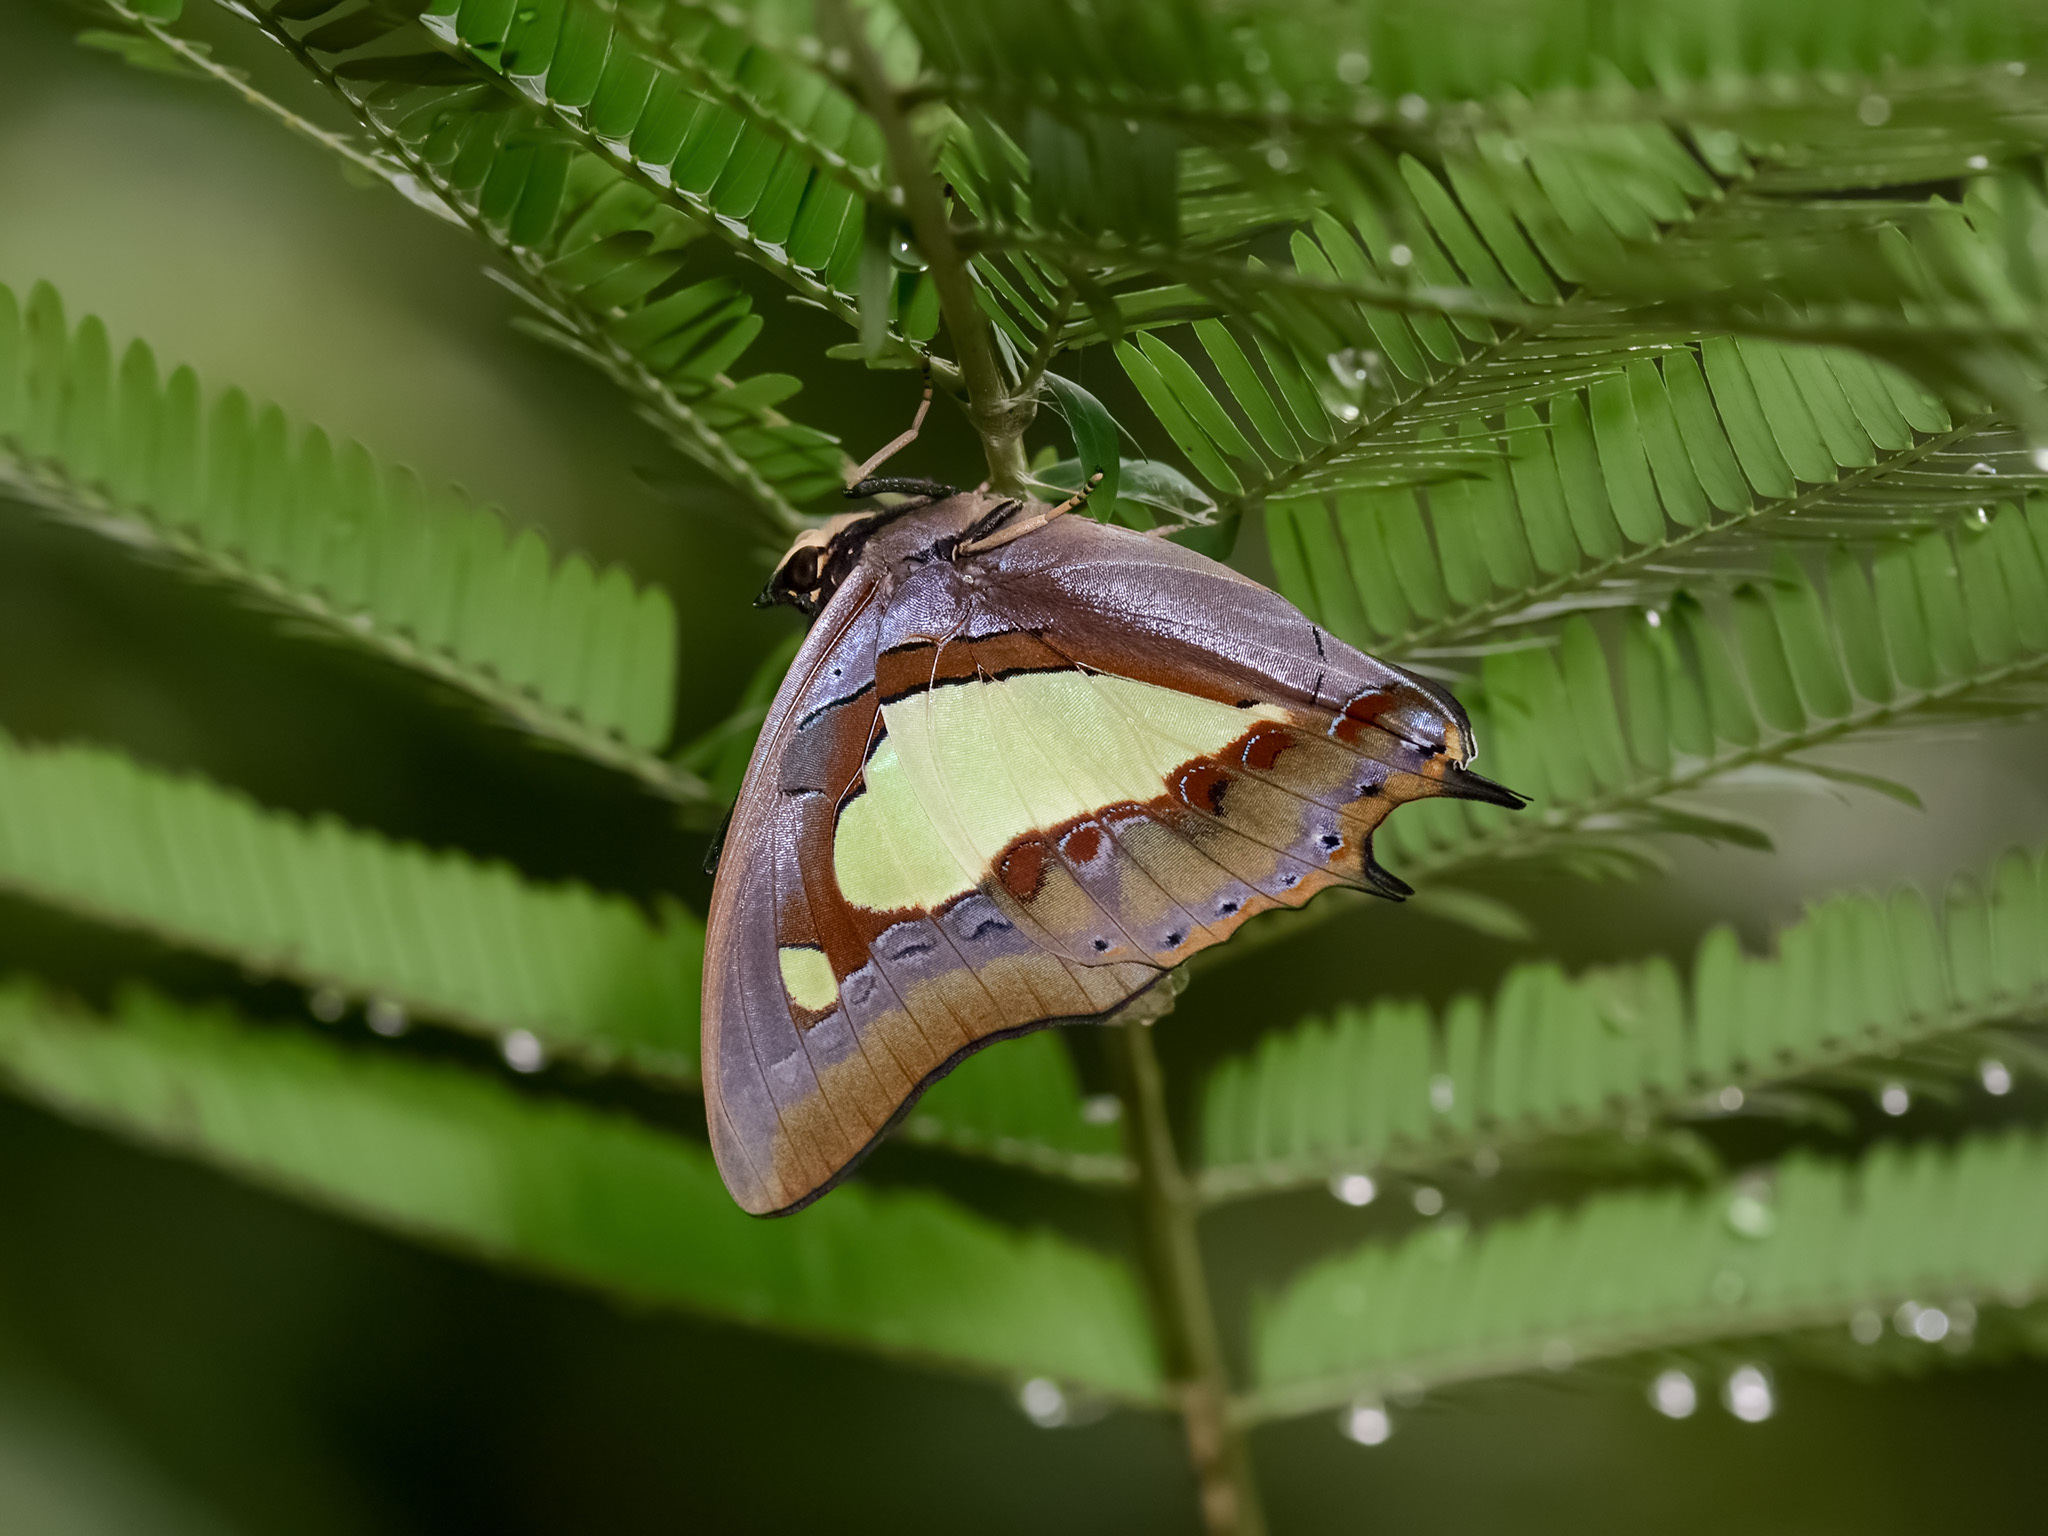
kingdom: Animalia
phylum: Arthropoda
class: Insecta
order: Lepidoptera
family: Nymphalidae
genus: Polyura
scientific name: Polyura athamas
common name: Common nawab
